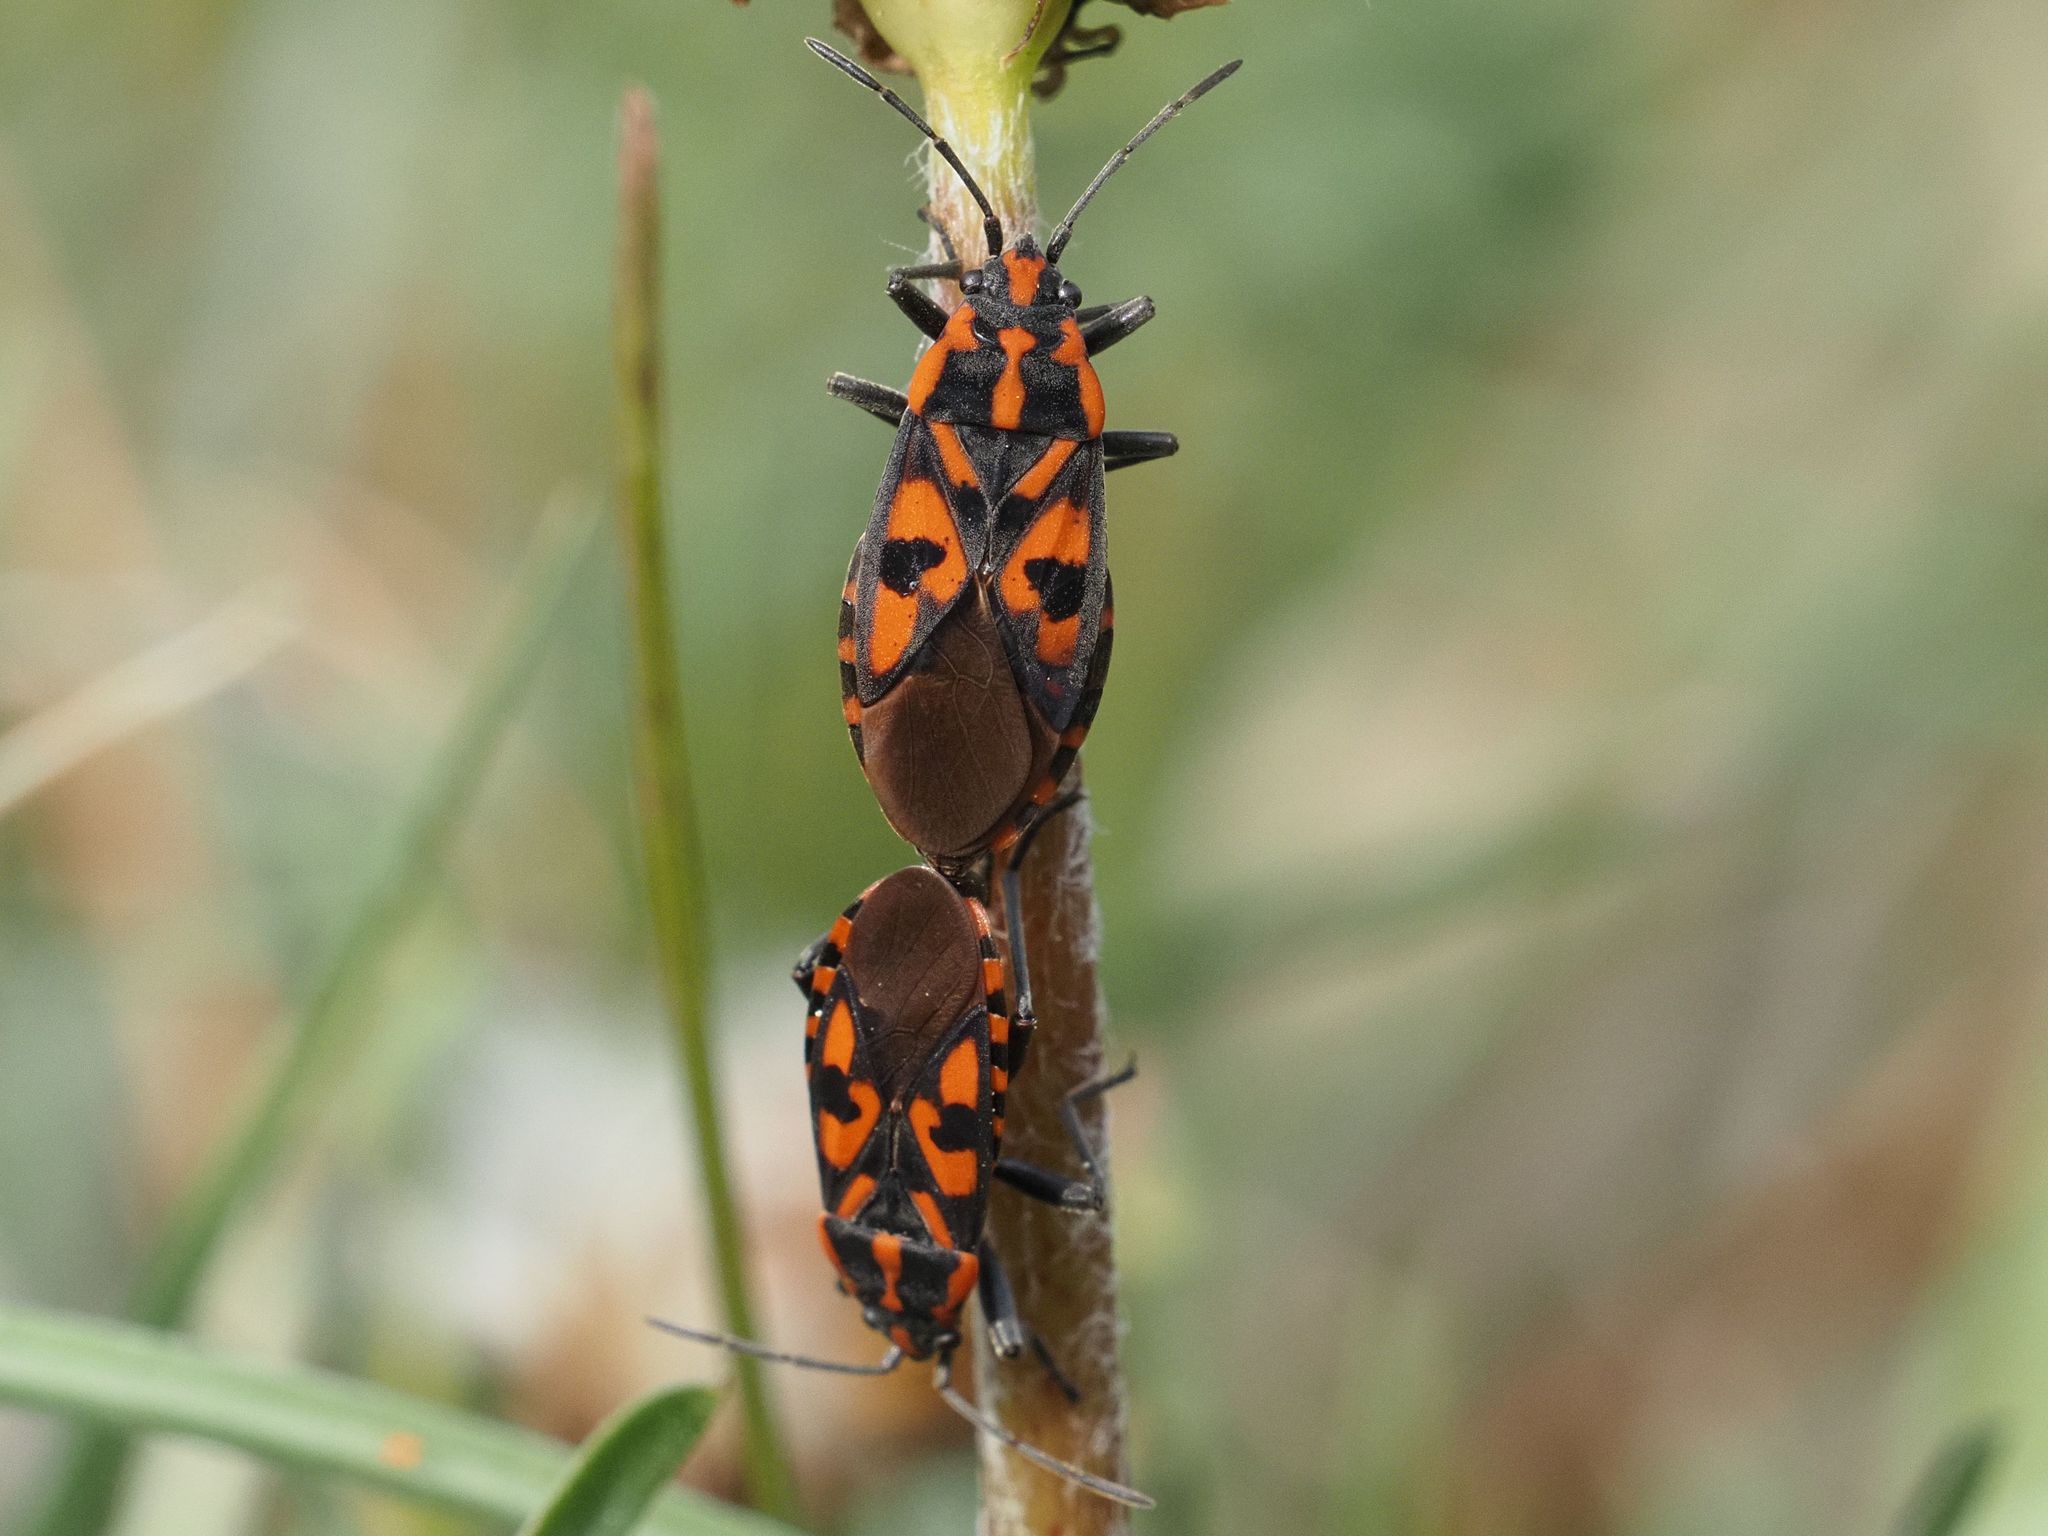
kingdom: Animalia
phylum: Arthropoda
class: Insecta
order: Hemiptera
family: Lygaeidae
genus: Spilostethus
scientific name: Spilostethus saxatilis
